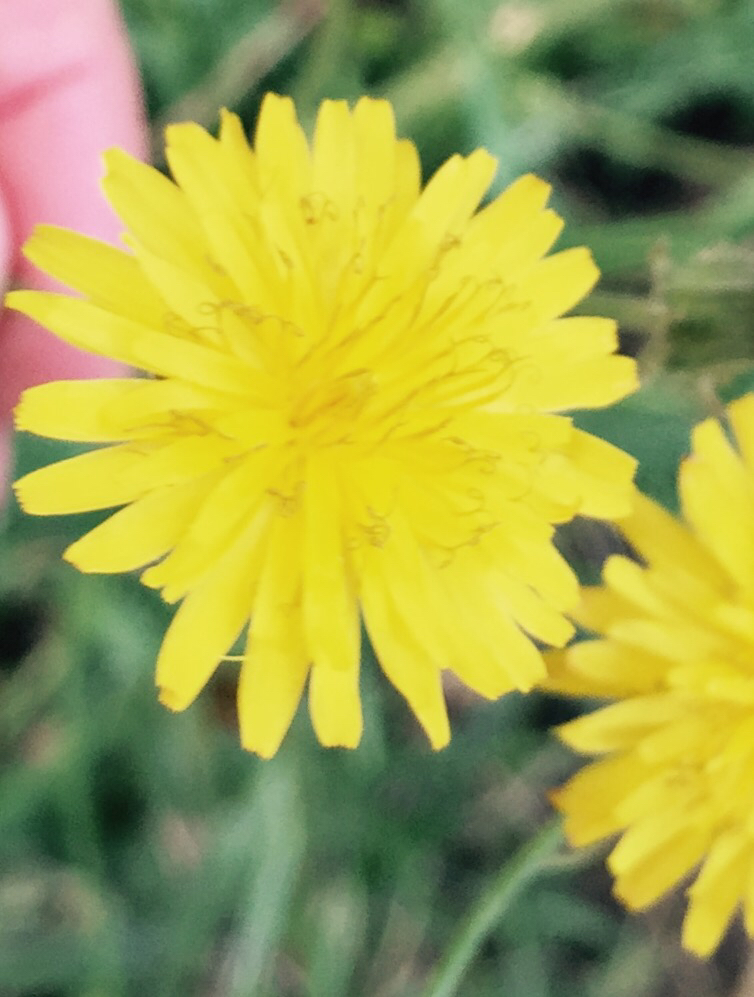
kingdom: Plantae
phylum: Tracheophyta
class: Magnoliopsida
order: Asterales
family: Asteraceae
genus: Taraxacum
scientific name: Taraxacum officinale
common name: Common dandelion
